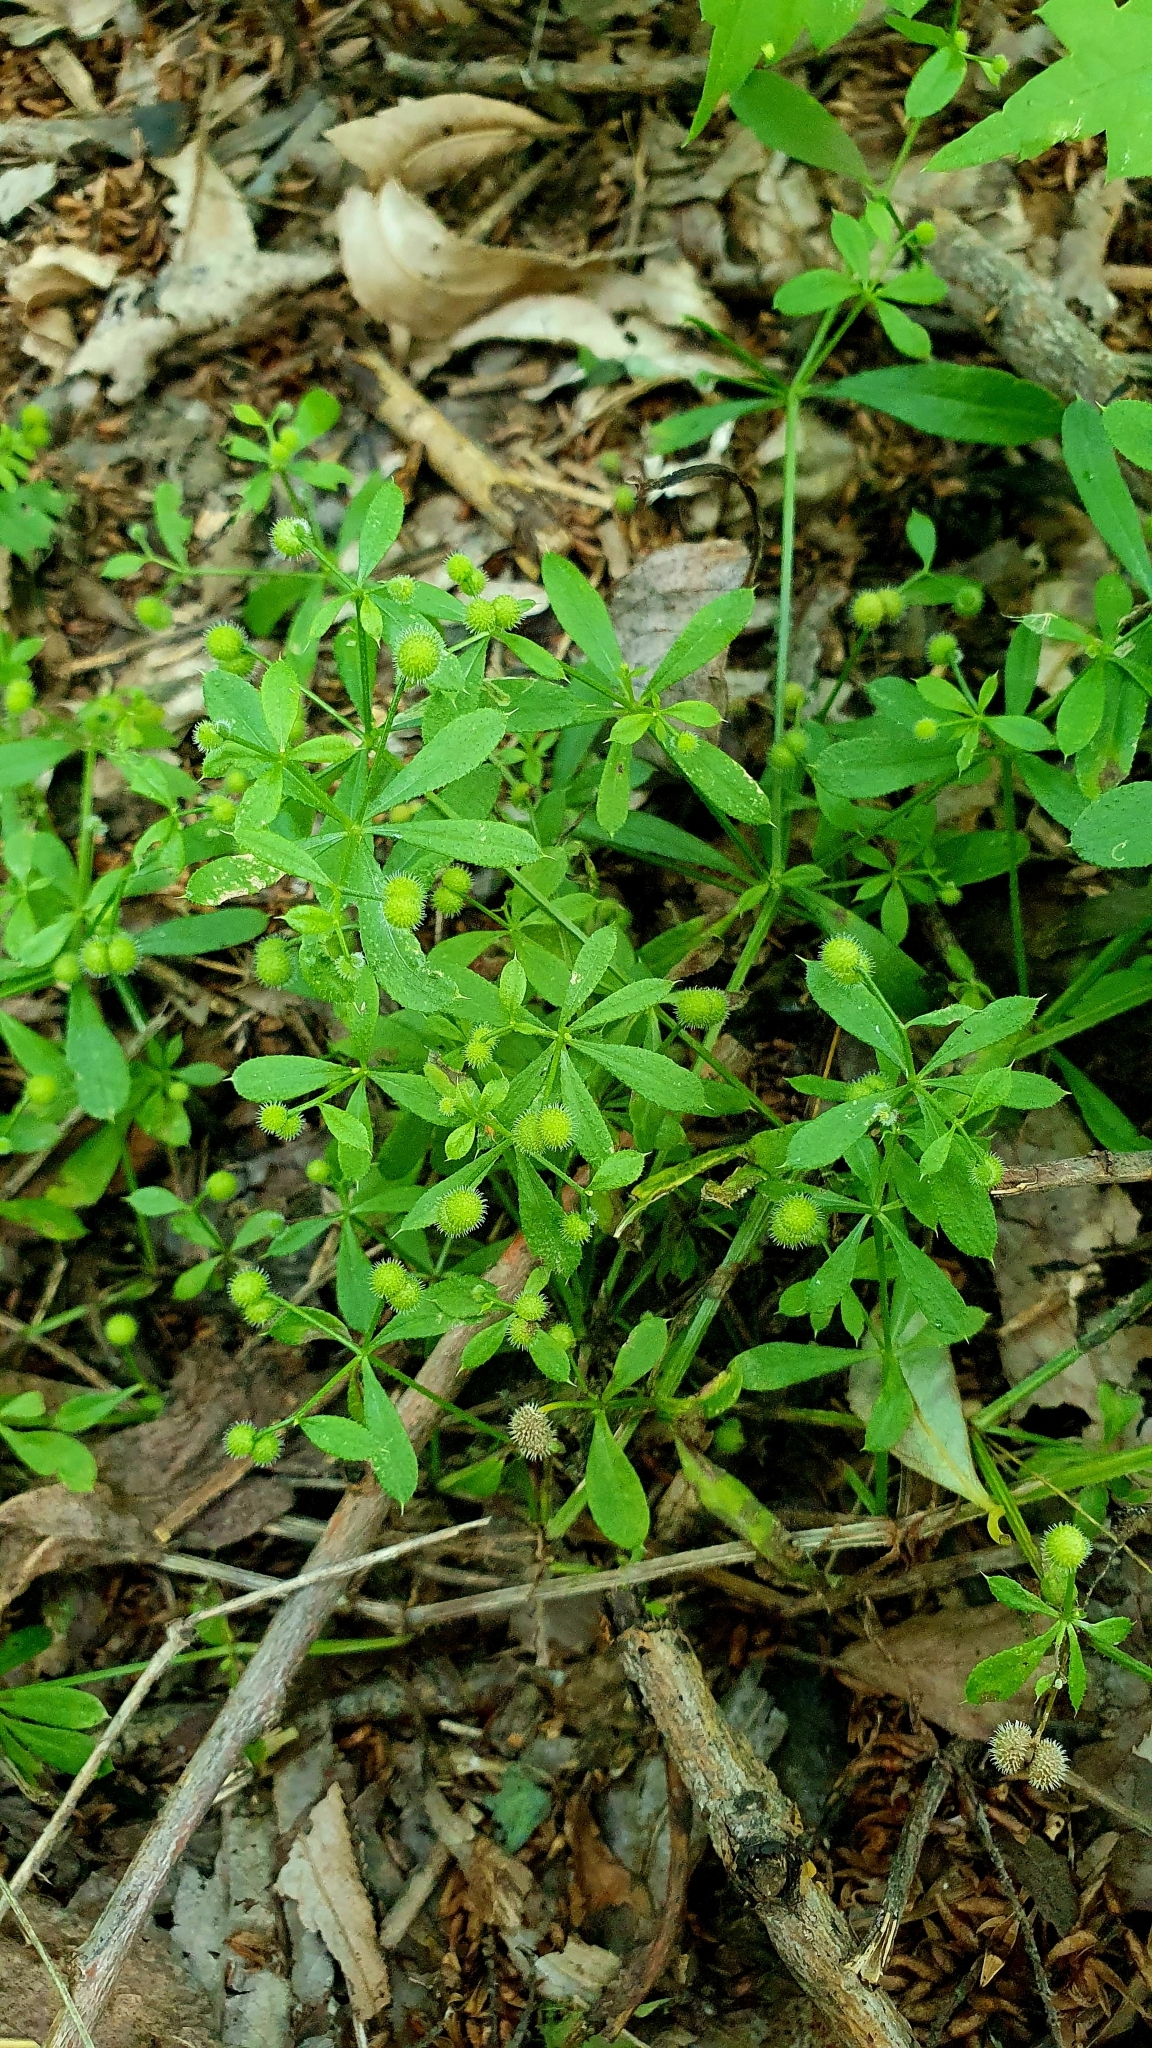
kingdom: Plantae
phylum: Tracheophyta
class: Magnoliopsida
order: Gentianales
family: Rubiaceae
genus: Galium
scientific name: Galium aparine
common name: Cleavers
